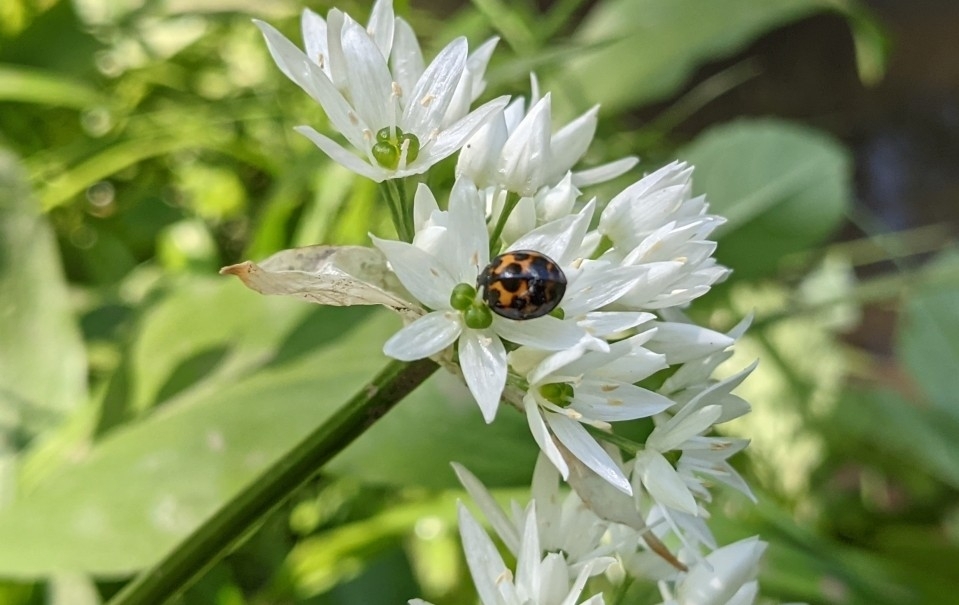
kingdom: Animalia
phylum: Arthropoda
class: Insecta
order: Coleoptera
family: Coccinellidae
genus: Harmonia
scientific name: Harmonia axyridis
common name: Harlequin ladybird
